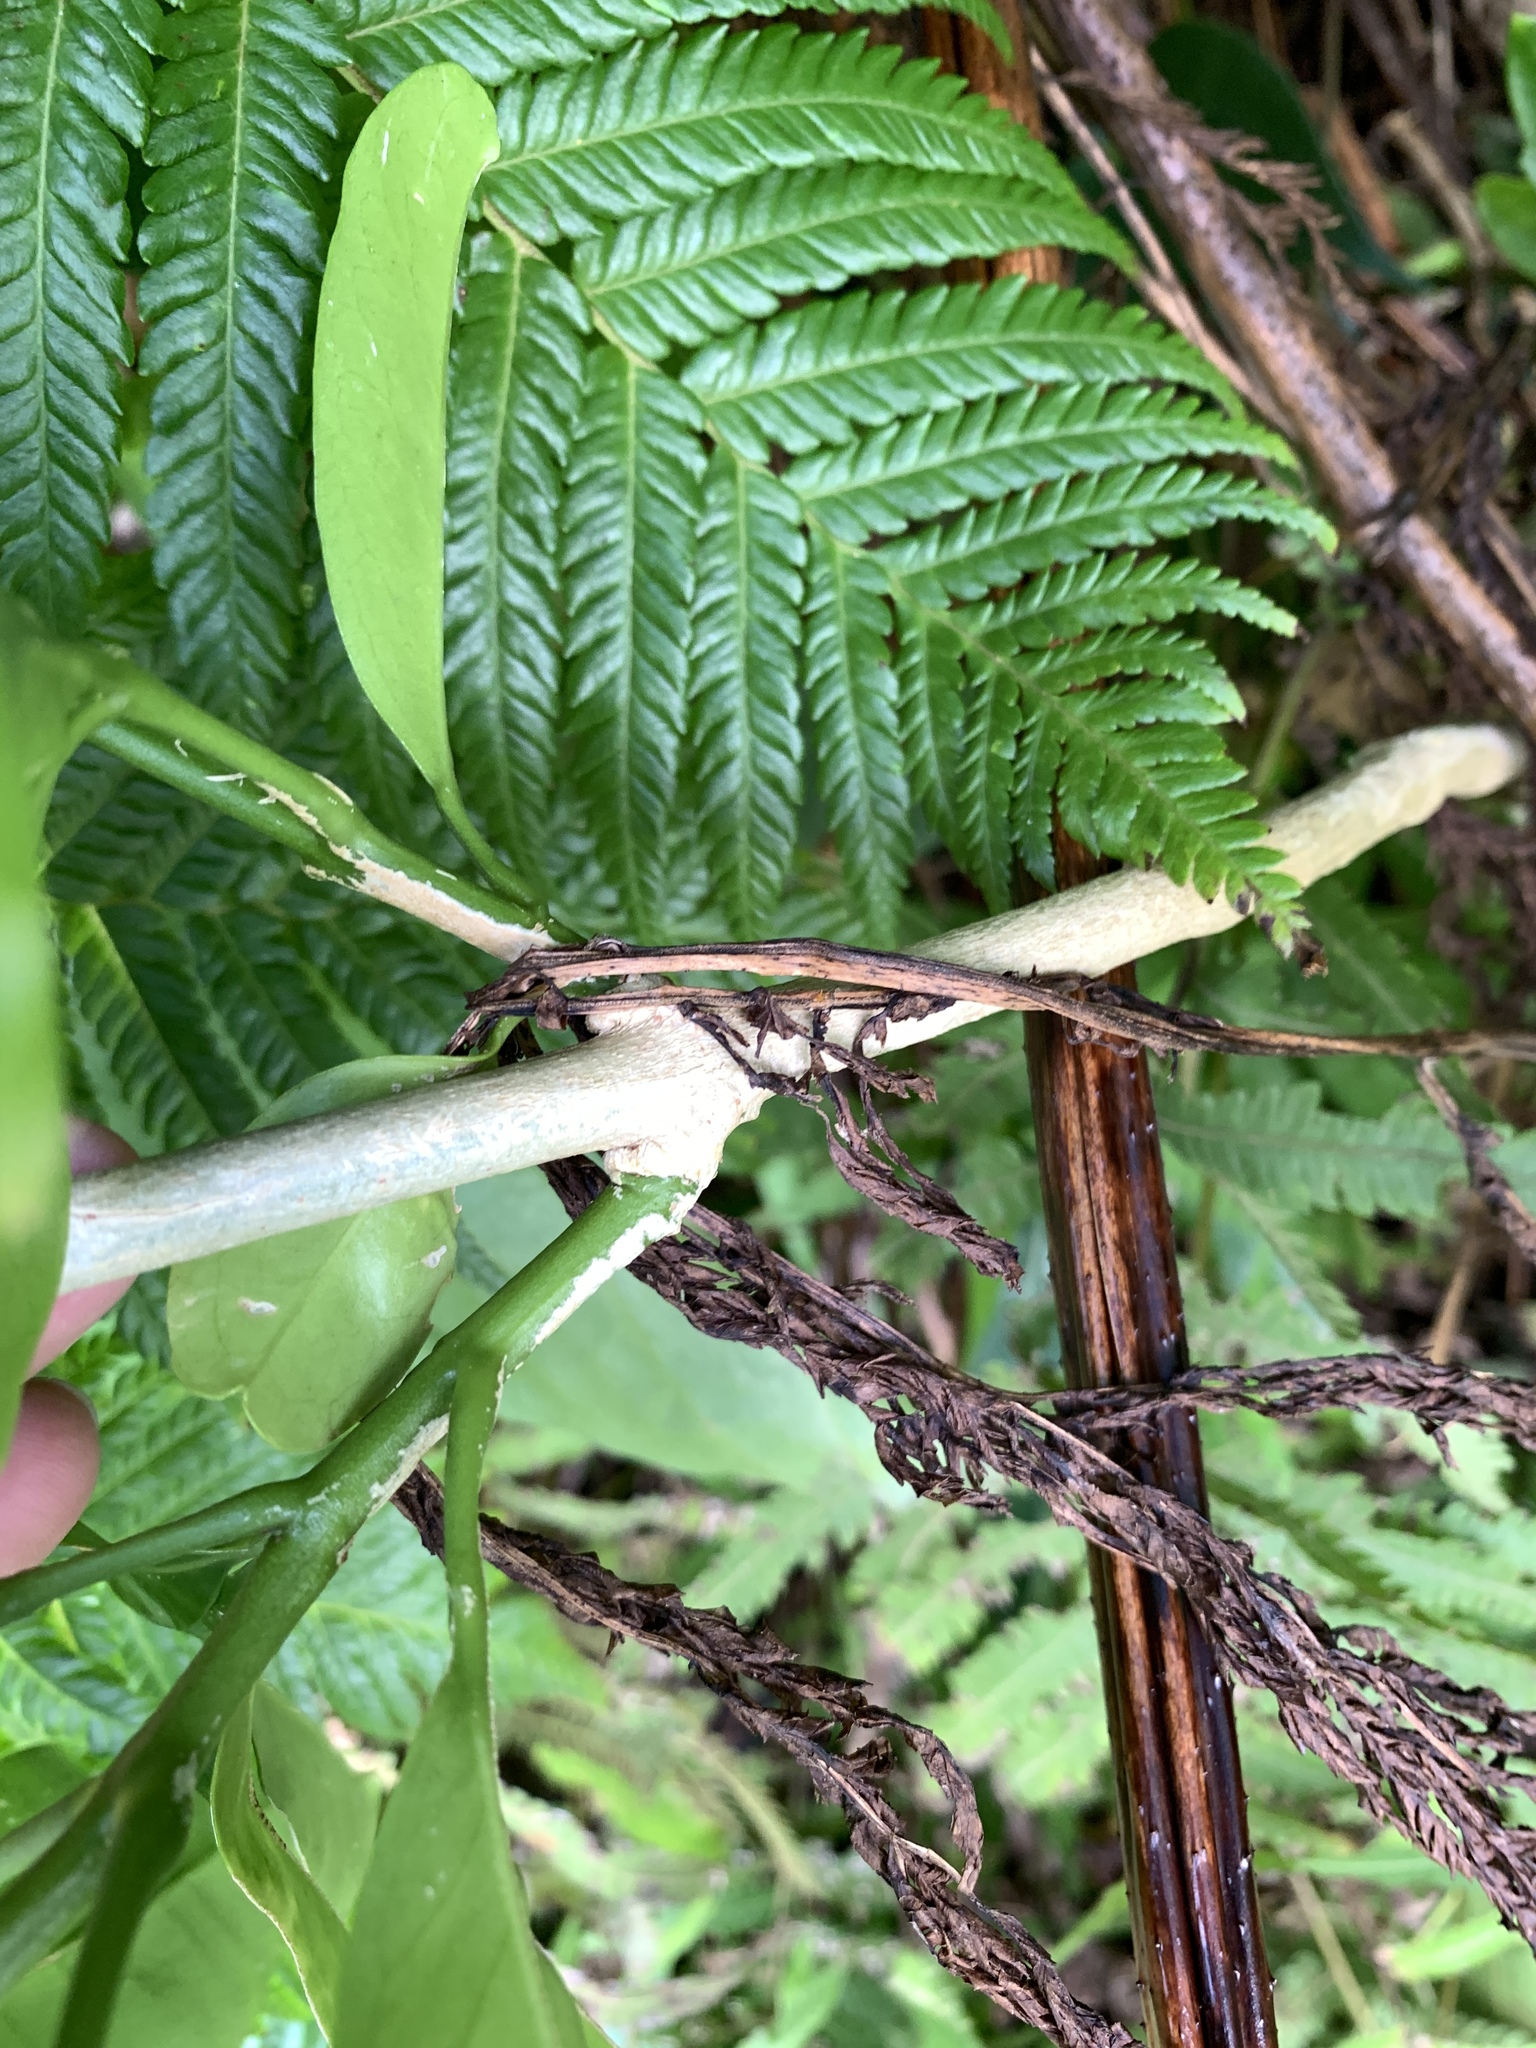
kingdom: Plantae
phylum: Tracheophyta
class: Magnoliopsida
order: Sapindales
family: Rutaceae
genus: Melicope
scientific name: Melicope triphylla
